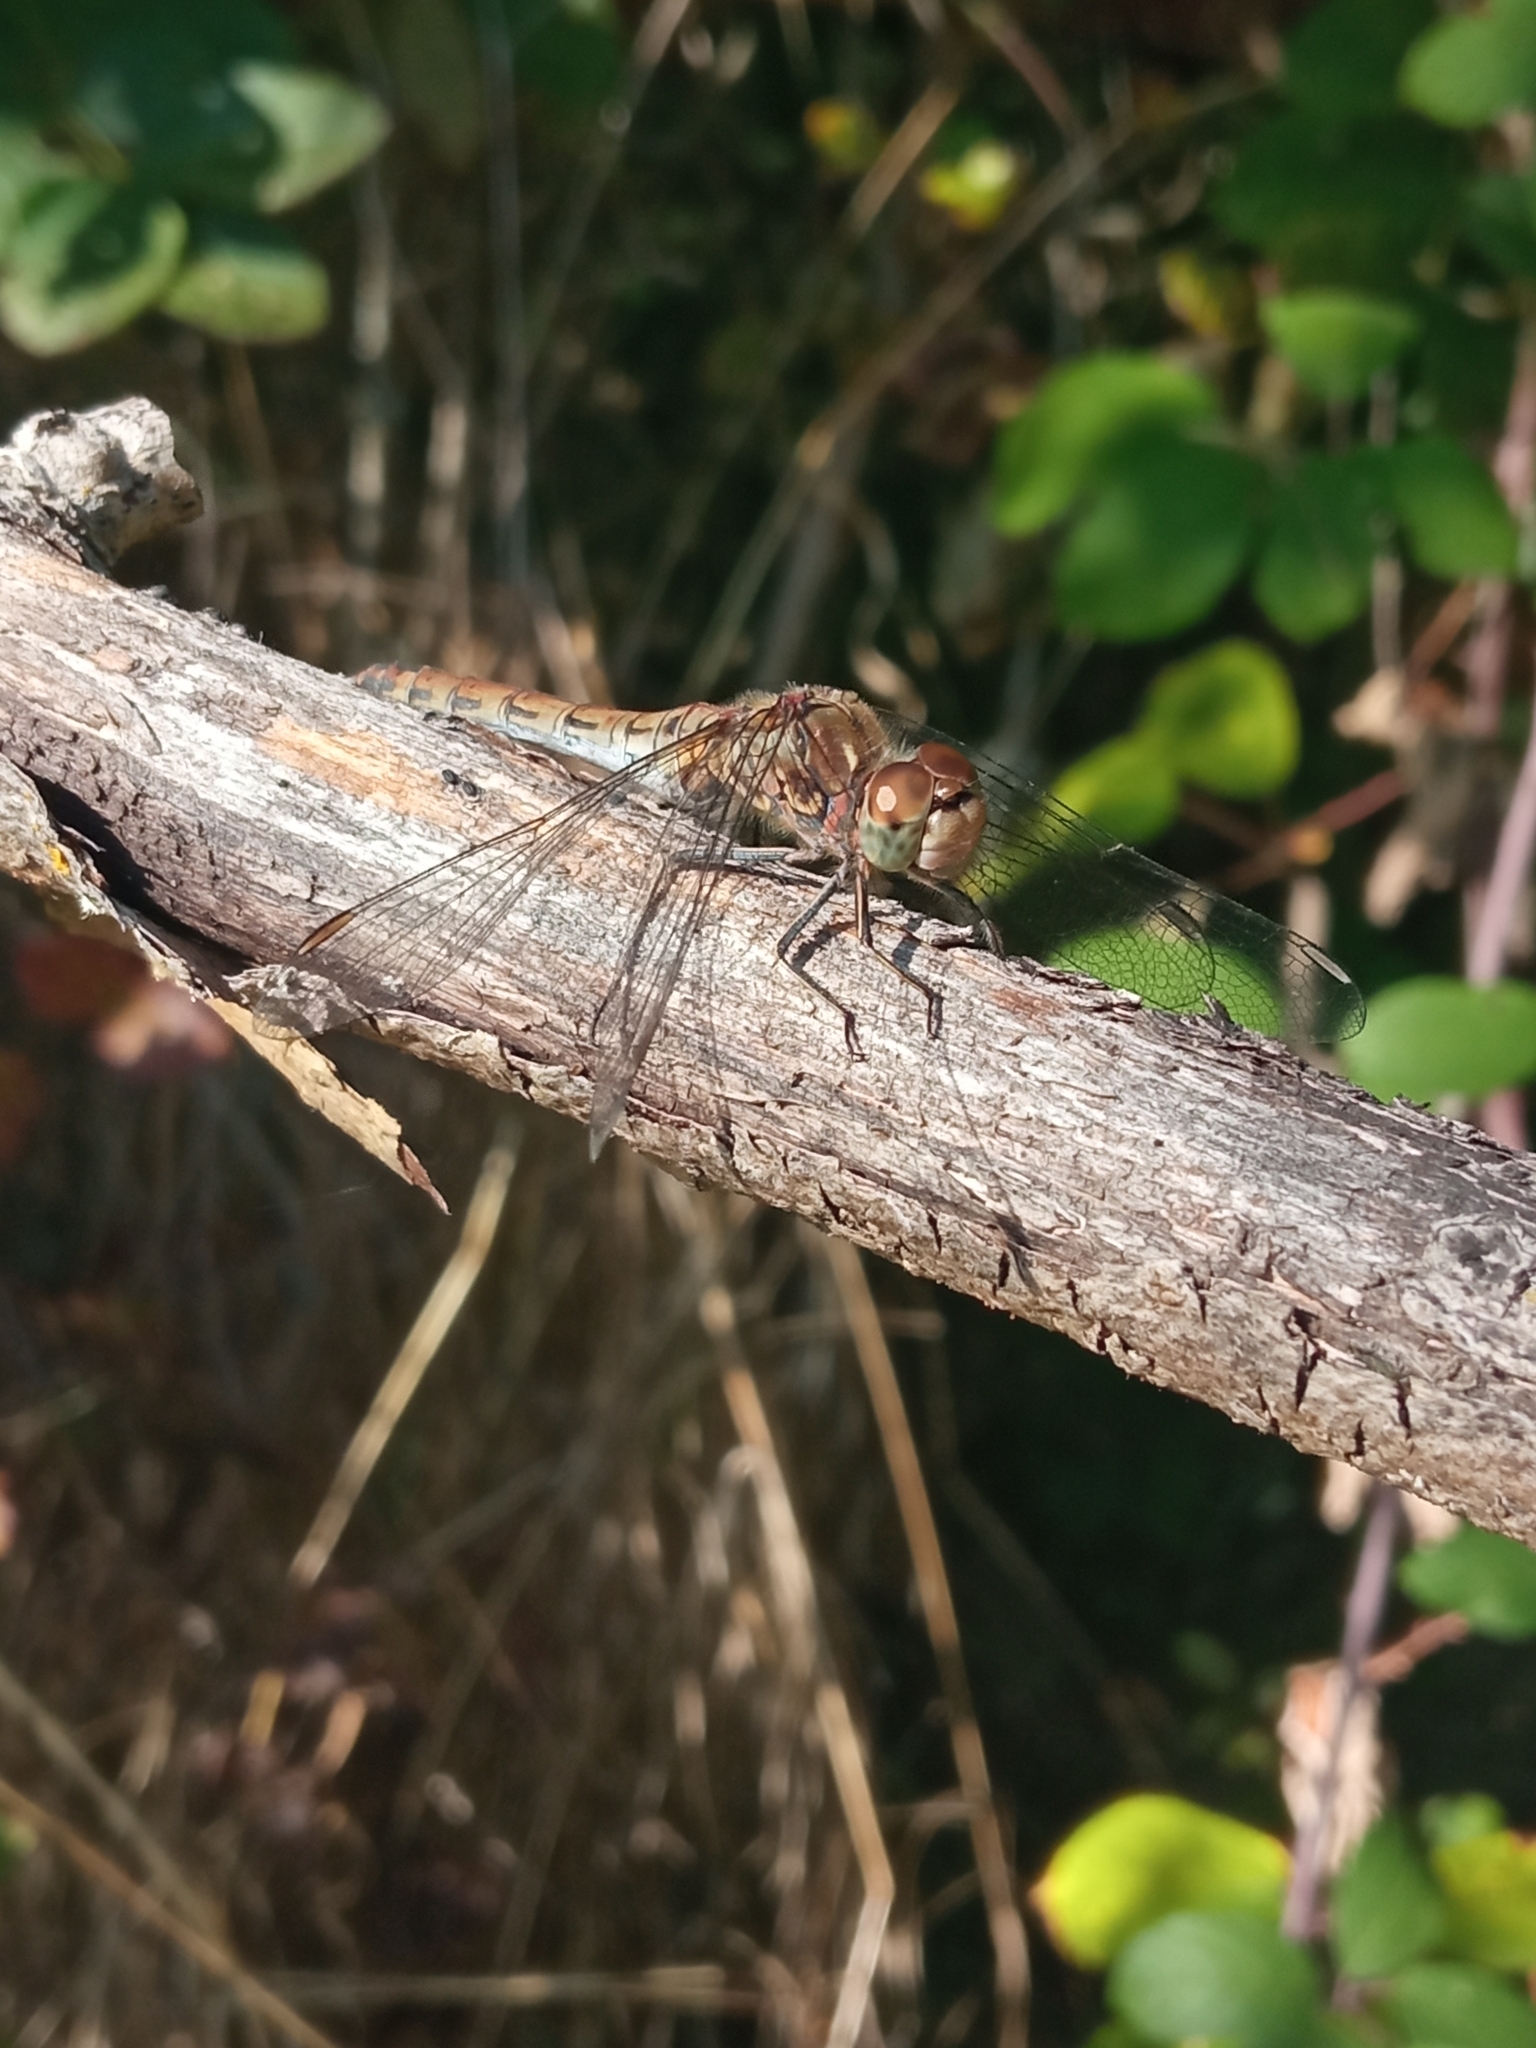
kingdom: Animalia
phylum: Arthropoda
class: Insecta
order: Odonata
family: Libellulidae
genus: Sympetrum
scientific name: Sympetrum striolatum
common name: Common darter
